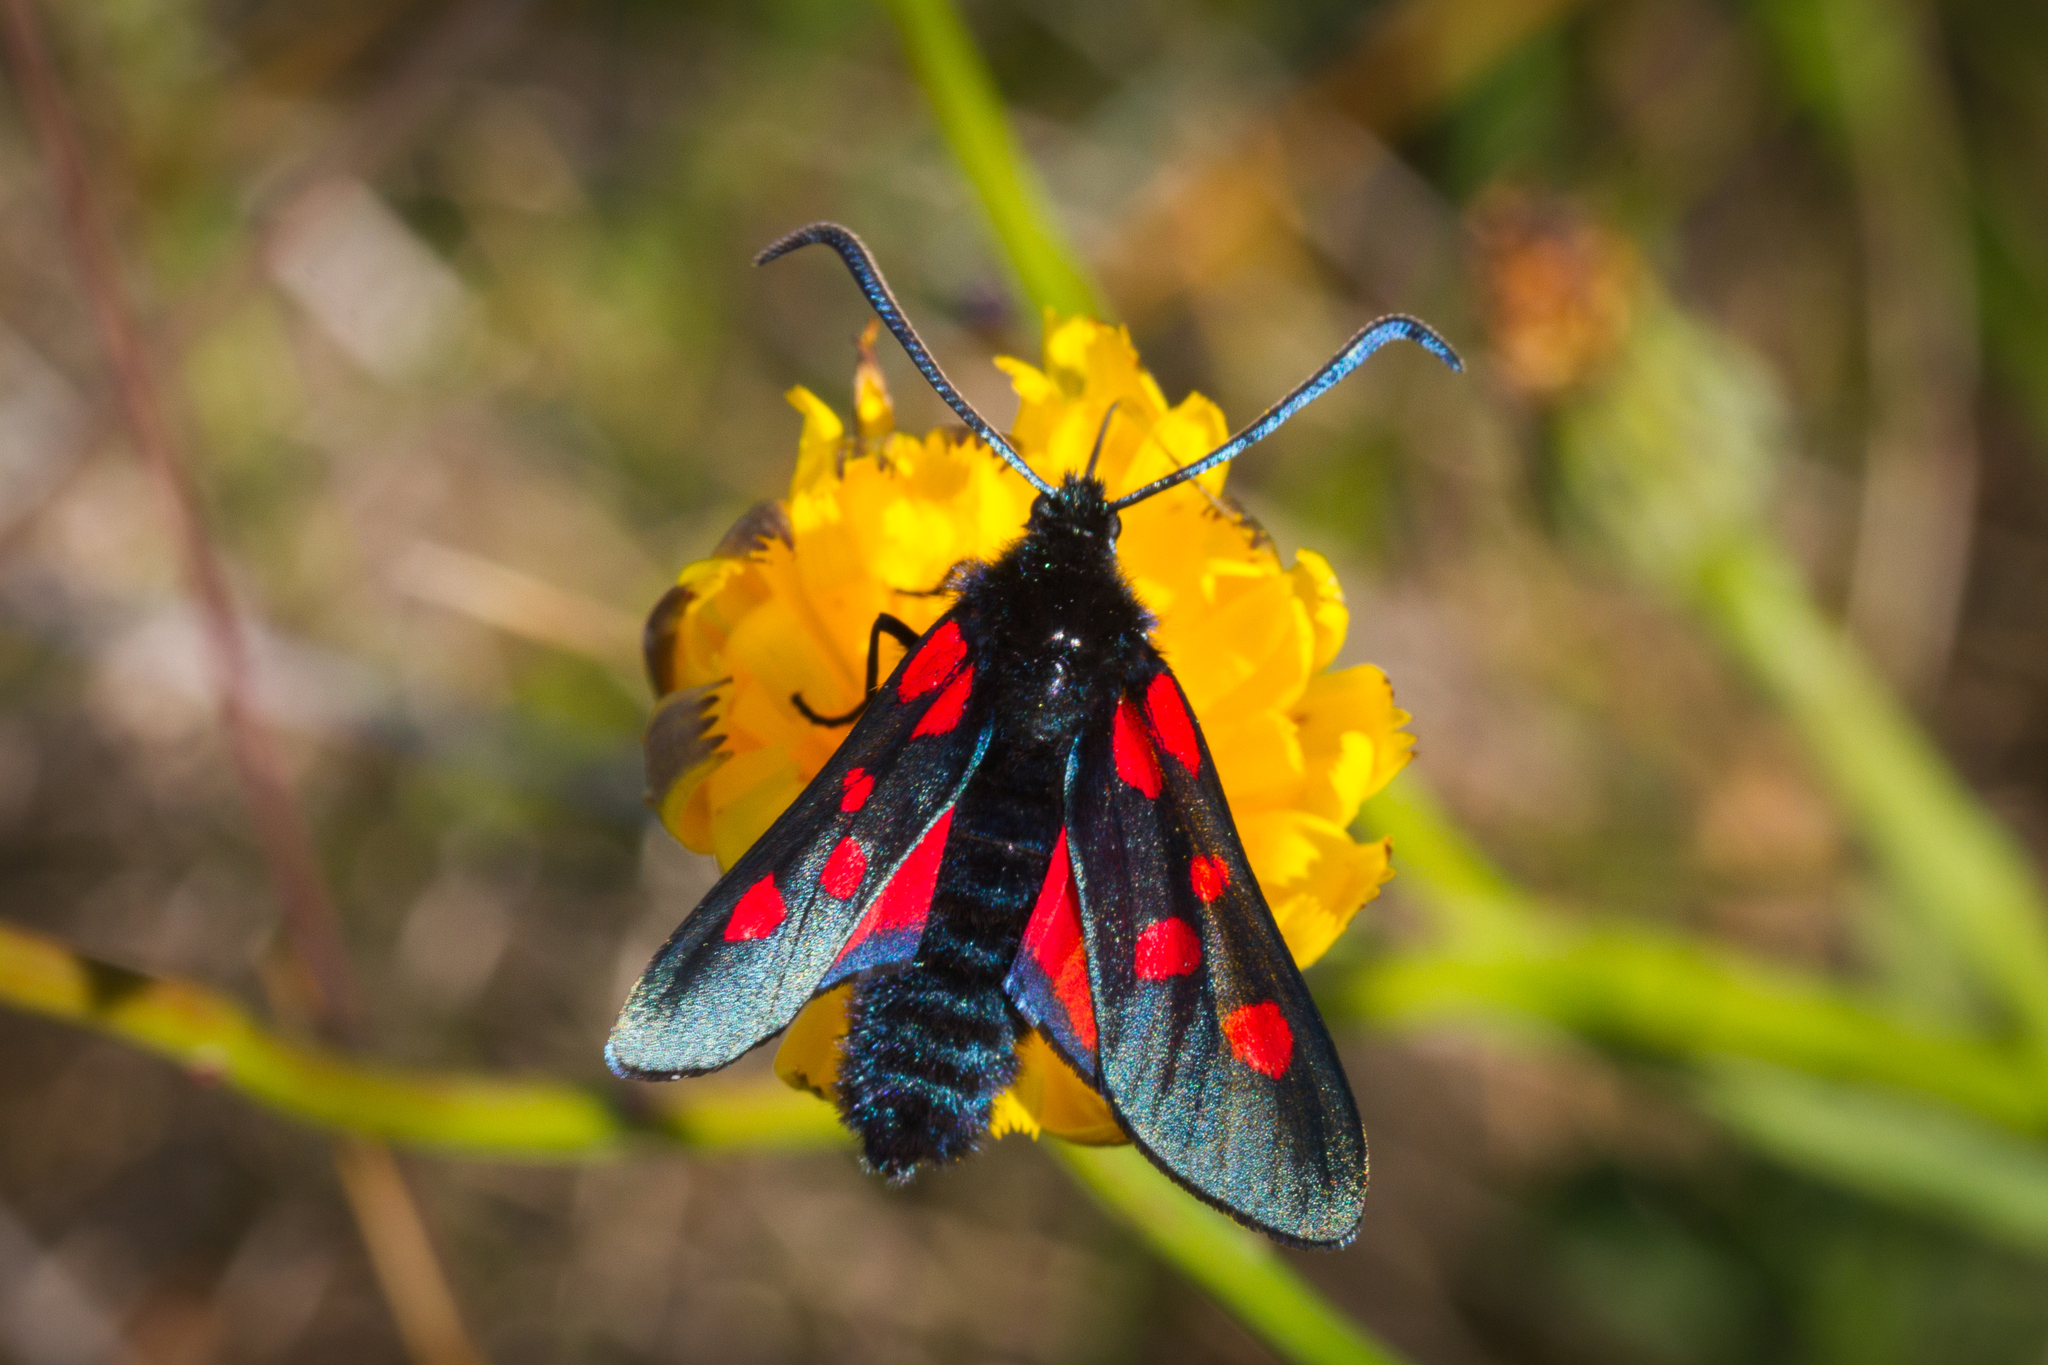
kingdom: Animalia
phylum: Arthropoda
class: Insecta
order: Lepidoptera
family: Zygaenidae
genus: Zygaena
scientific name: Zygaena lonicerae
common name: Narrow-bordered five-spot burnet
